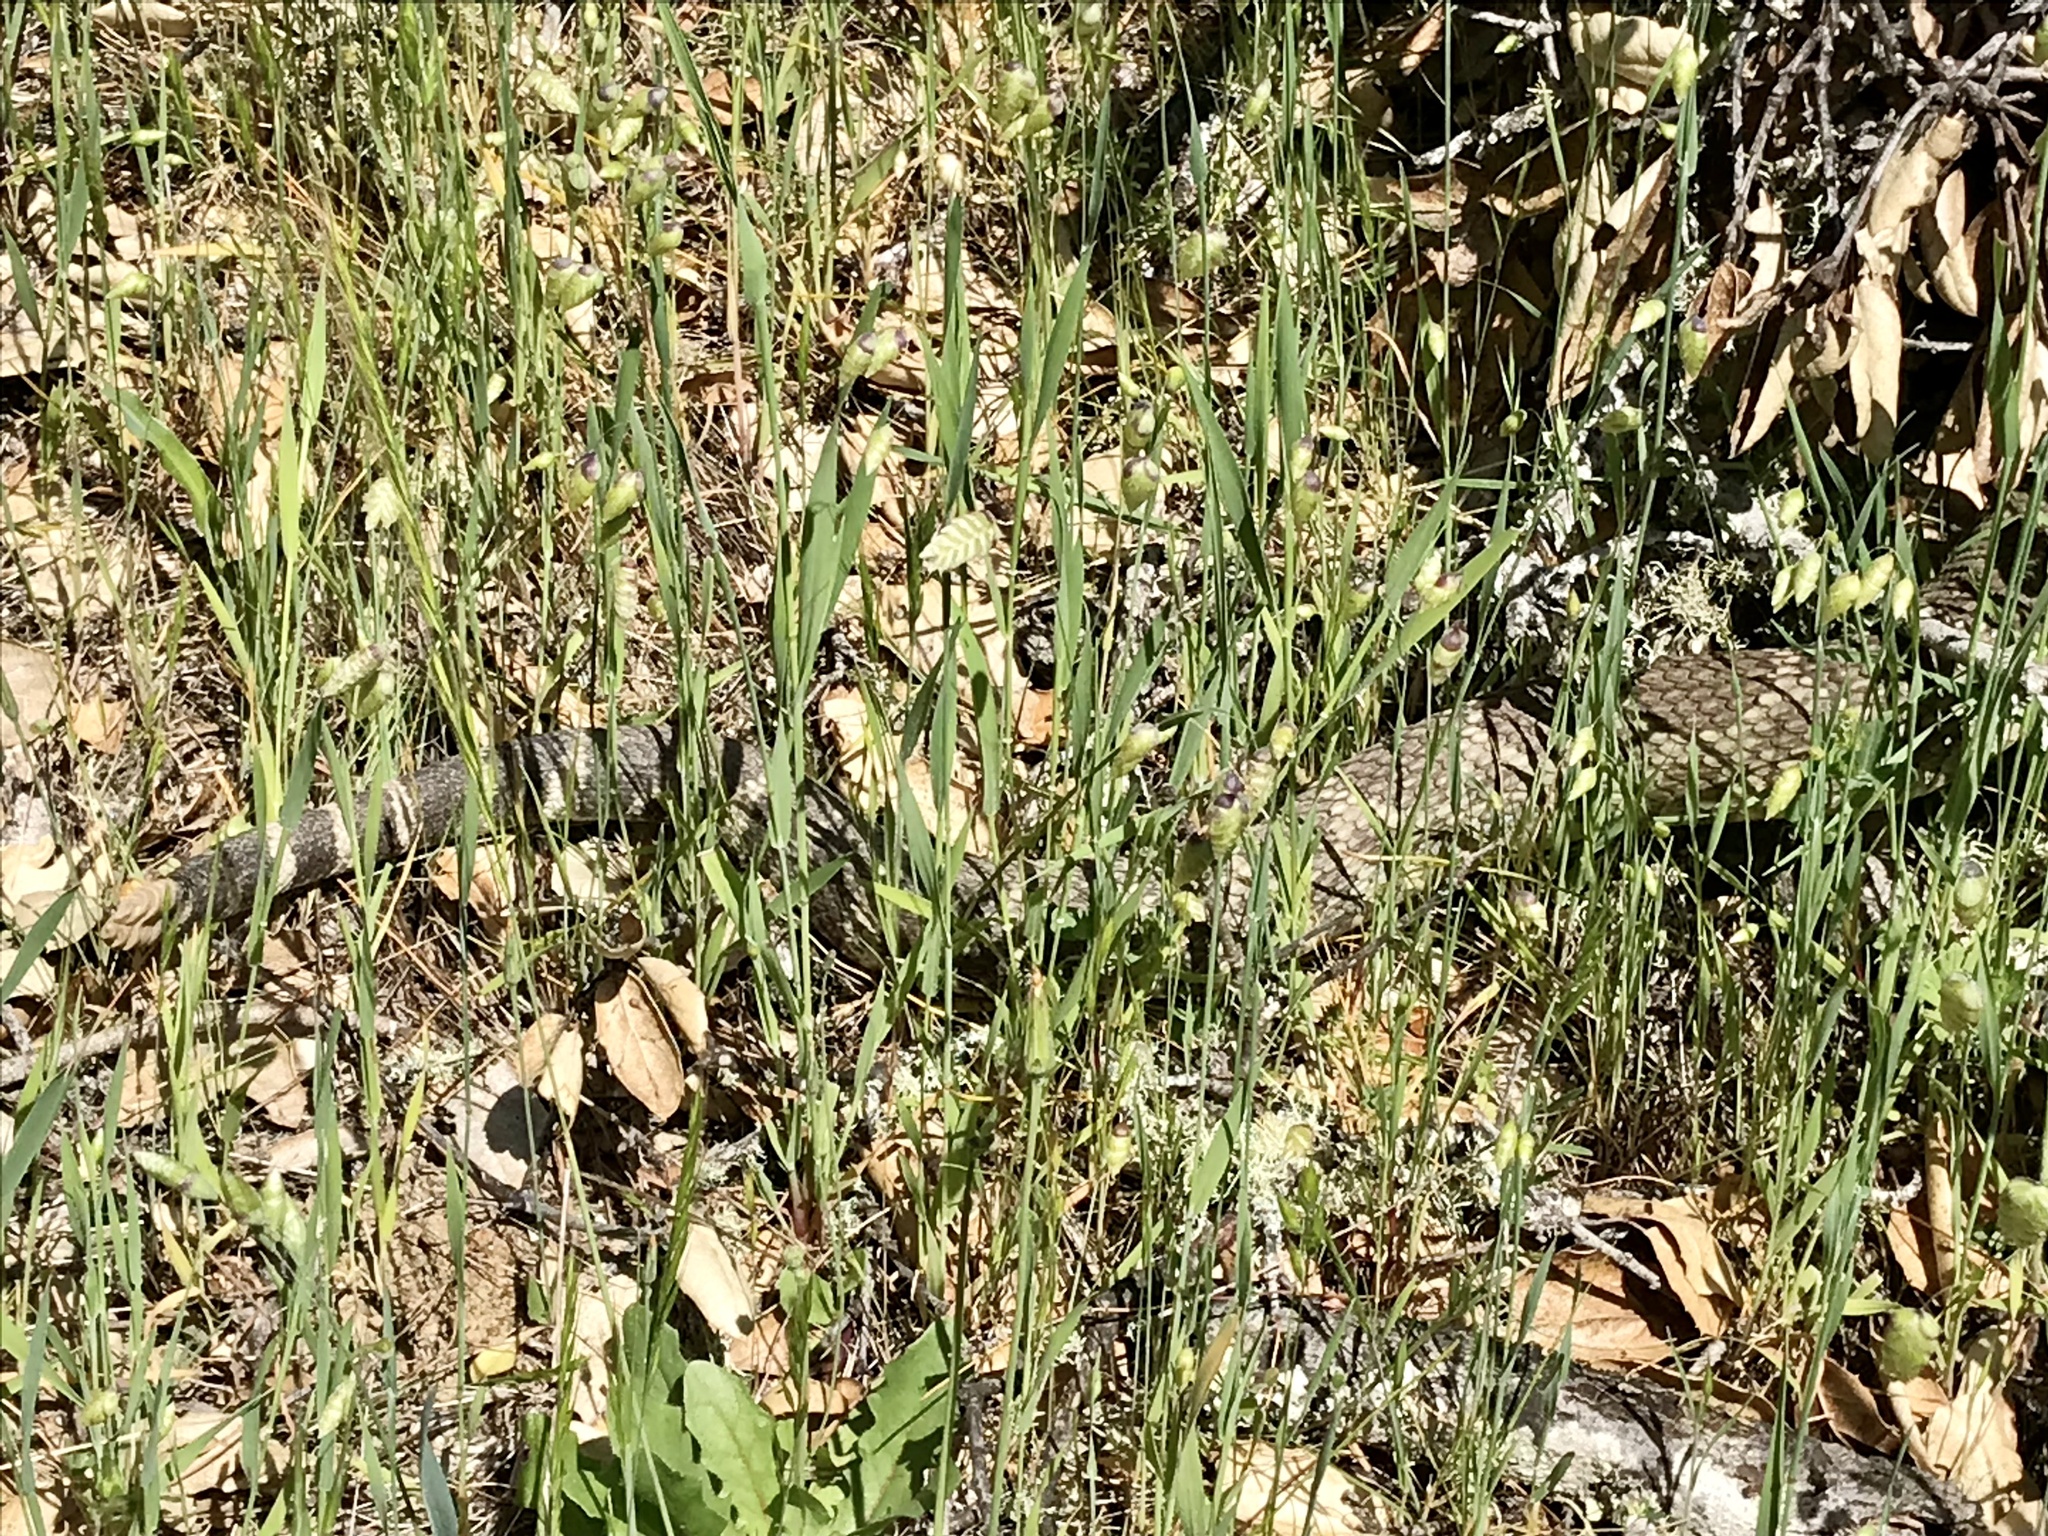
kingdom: Animalia
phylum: Chordata
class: Squamata
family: Viperidae
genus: Crotalus
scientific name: Crotalus oreganus
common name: Abyssus
